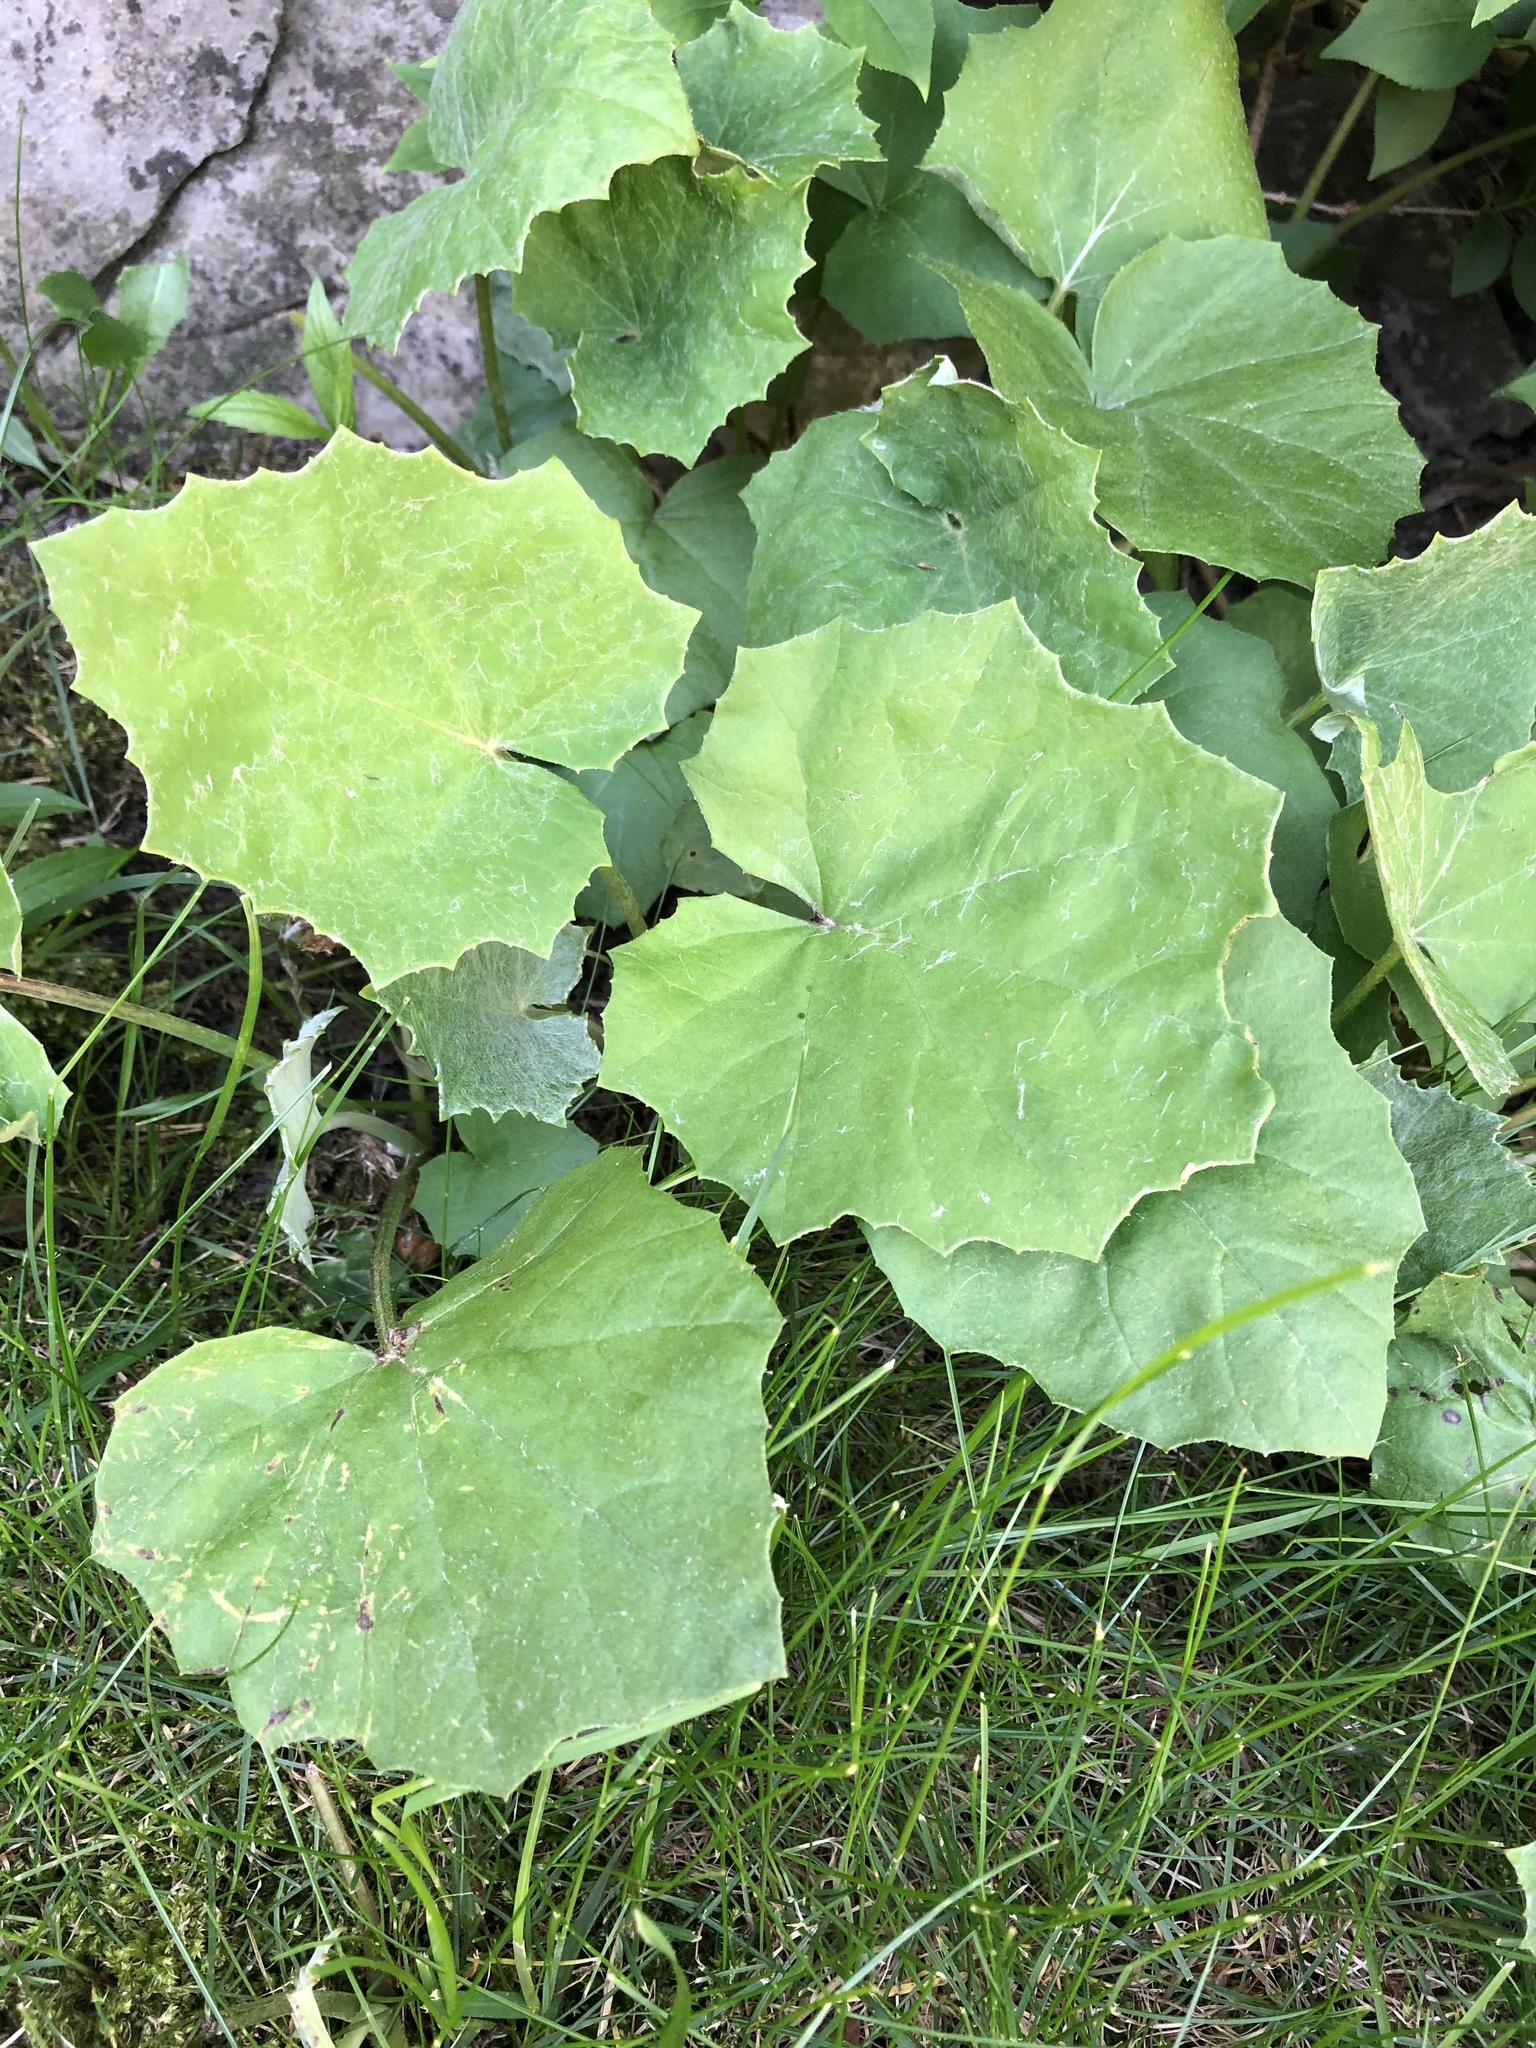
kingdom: Plantae
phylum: Tracheophyta
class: Magnoliopsida
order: Asterales
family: Asteraceae
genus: Tussilago
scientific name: Tussilago farfara
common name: Coltsfoot
